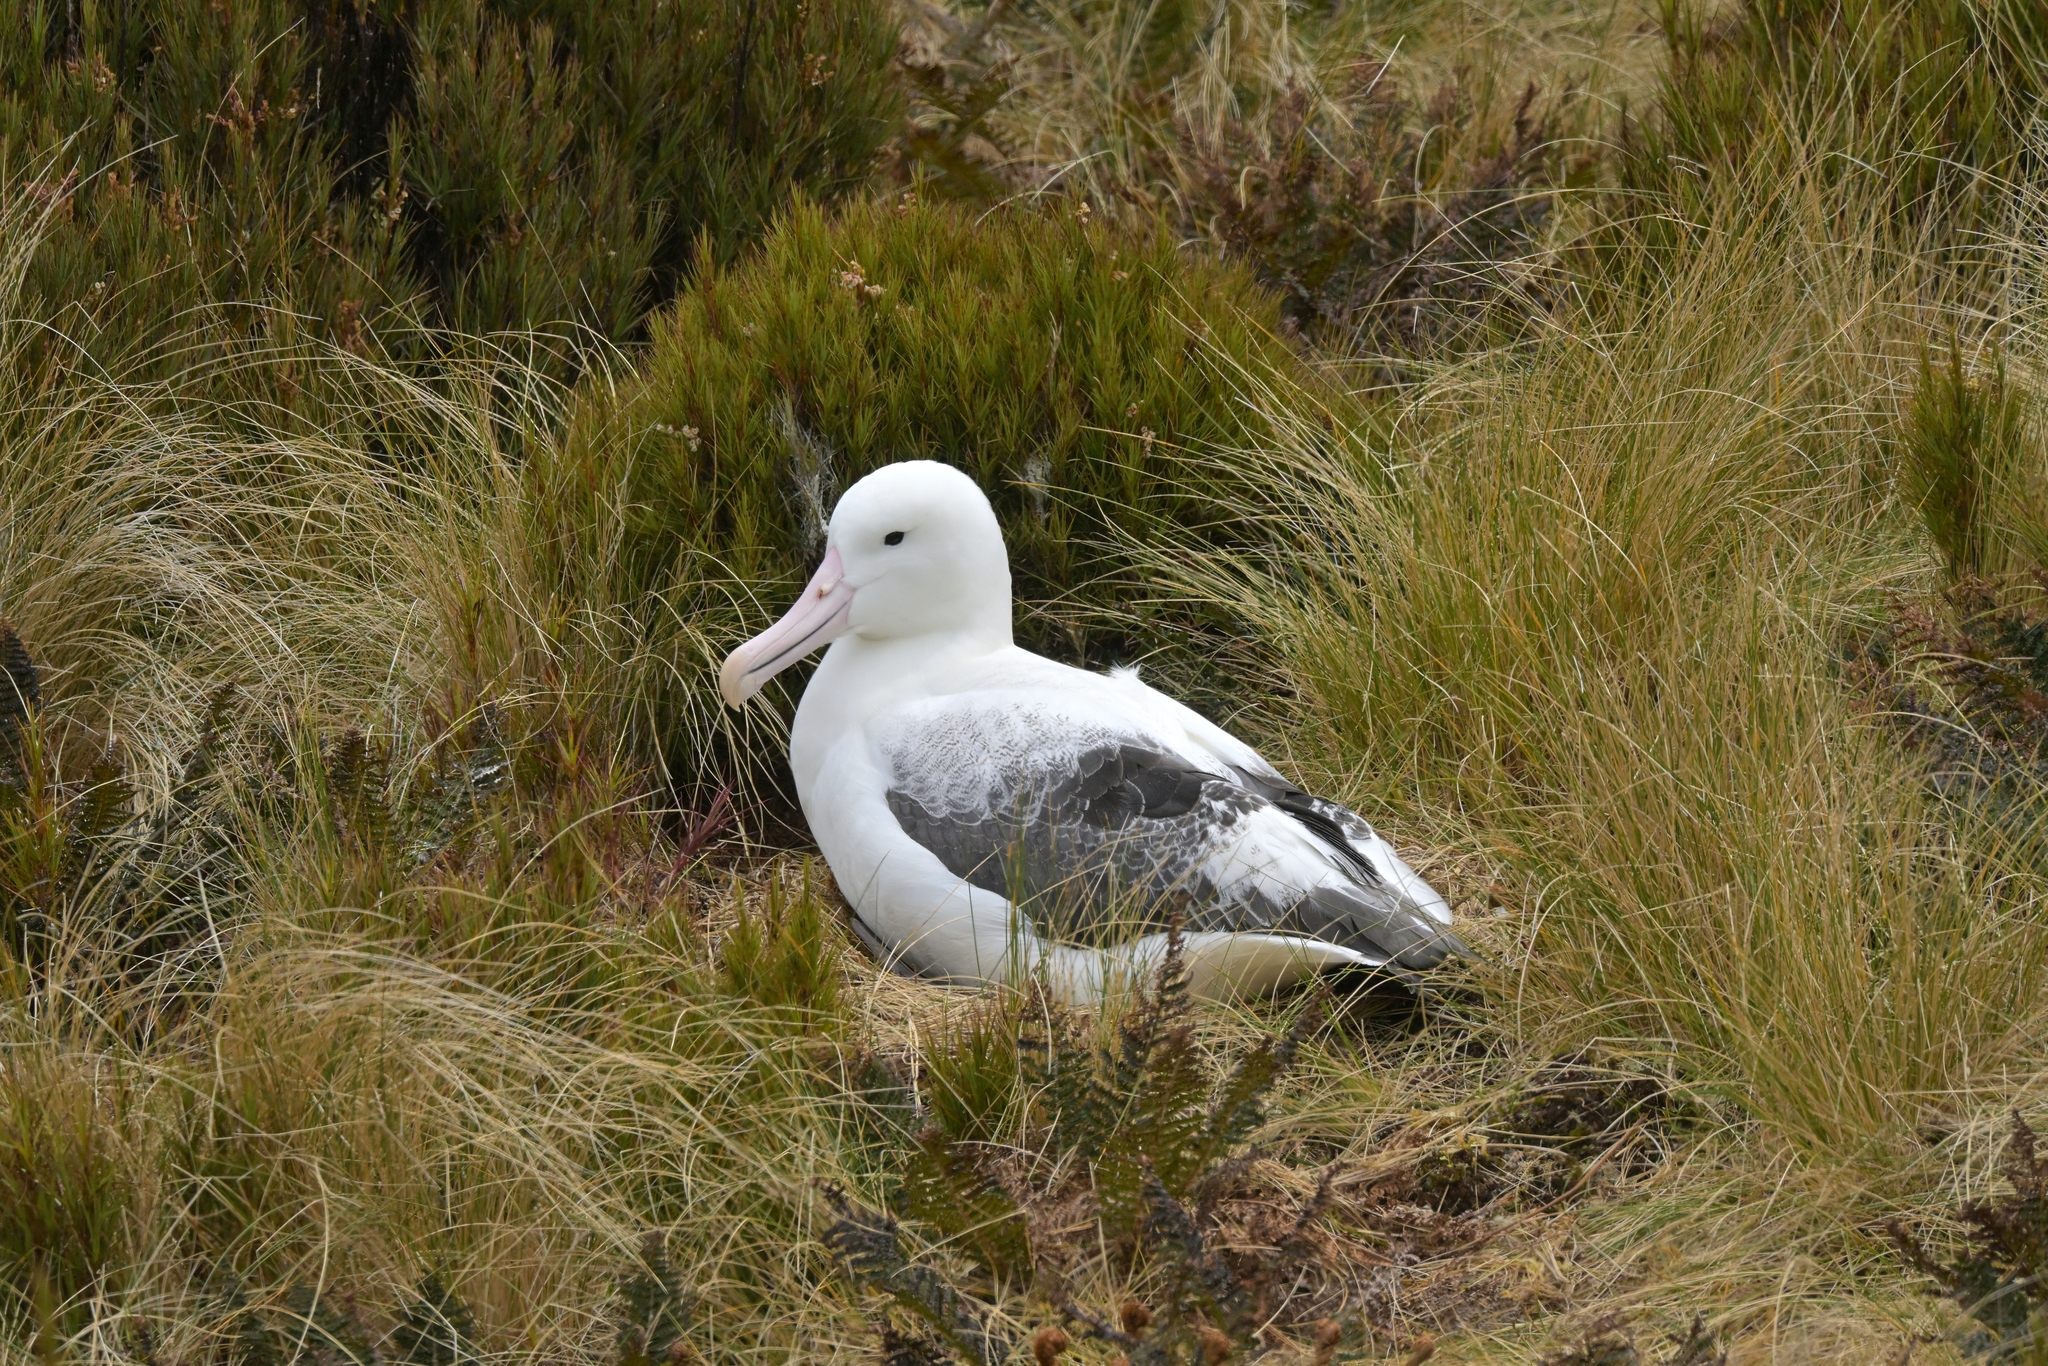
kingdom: Animalia
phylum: Chordata
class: Aves
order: Procellariiformes
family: Diomedeidae
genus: Diomedea
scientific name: Diomedea epomophora
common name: Southern royal albatross
